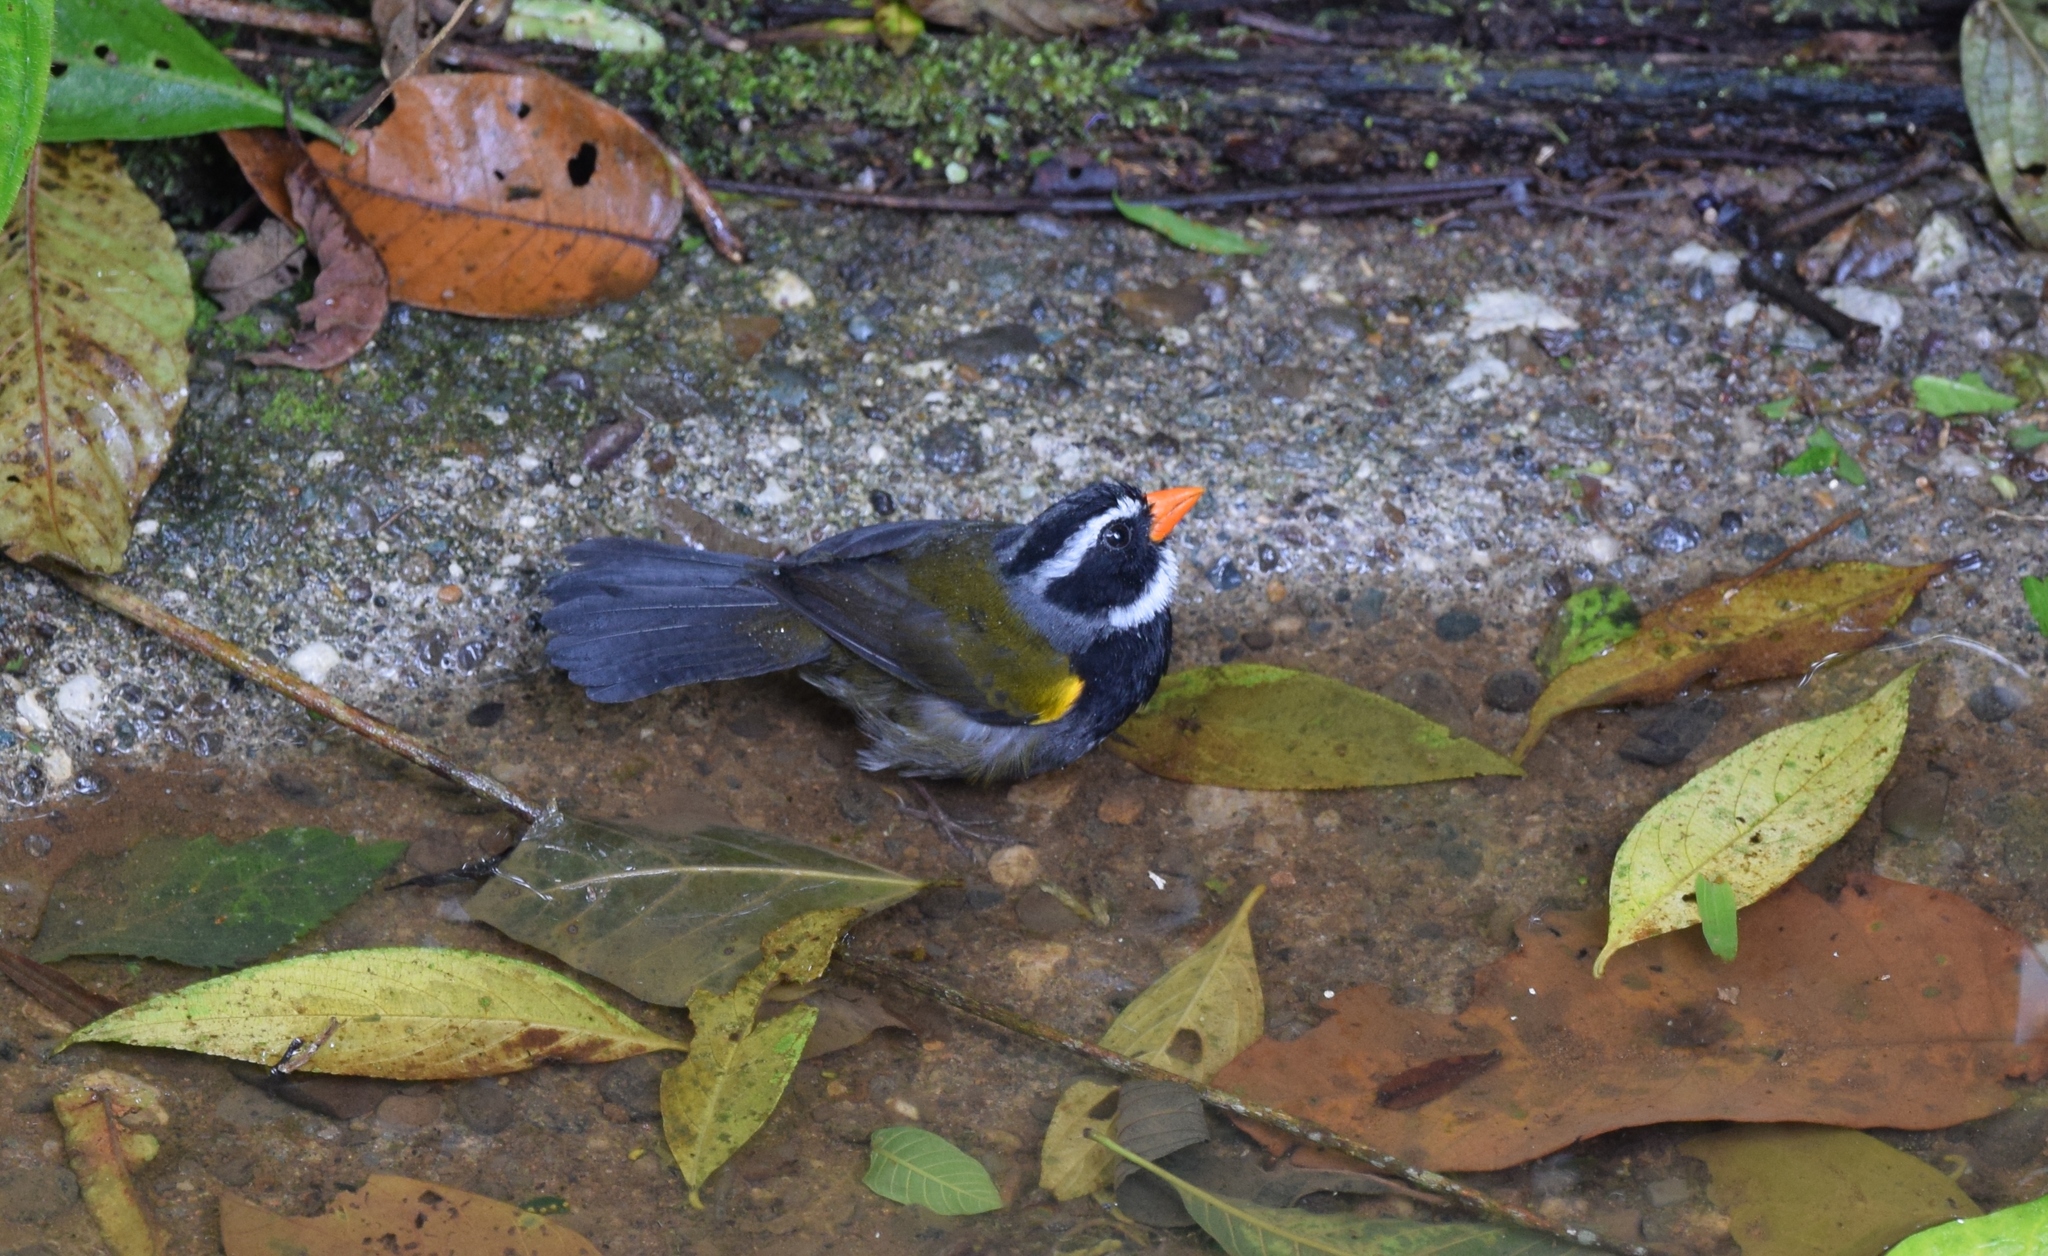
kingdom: Animalia
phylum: Chordata
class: Aves
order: Passeriformes
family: Passerellidae
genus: Arremon
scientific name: Arremon aurantiirostris
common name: Orange-billed sparrow
